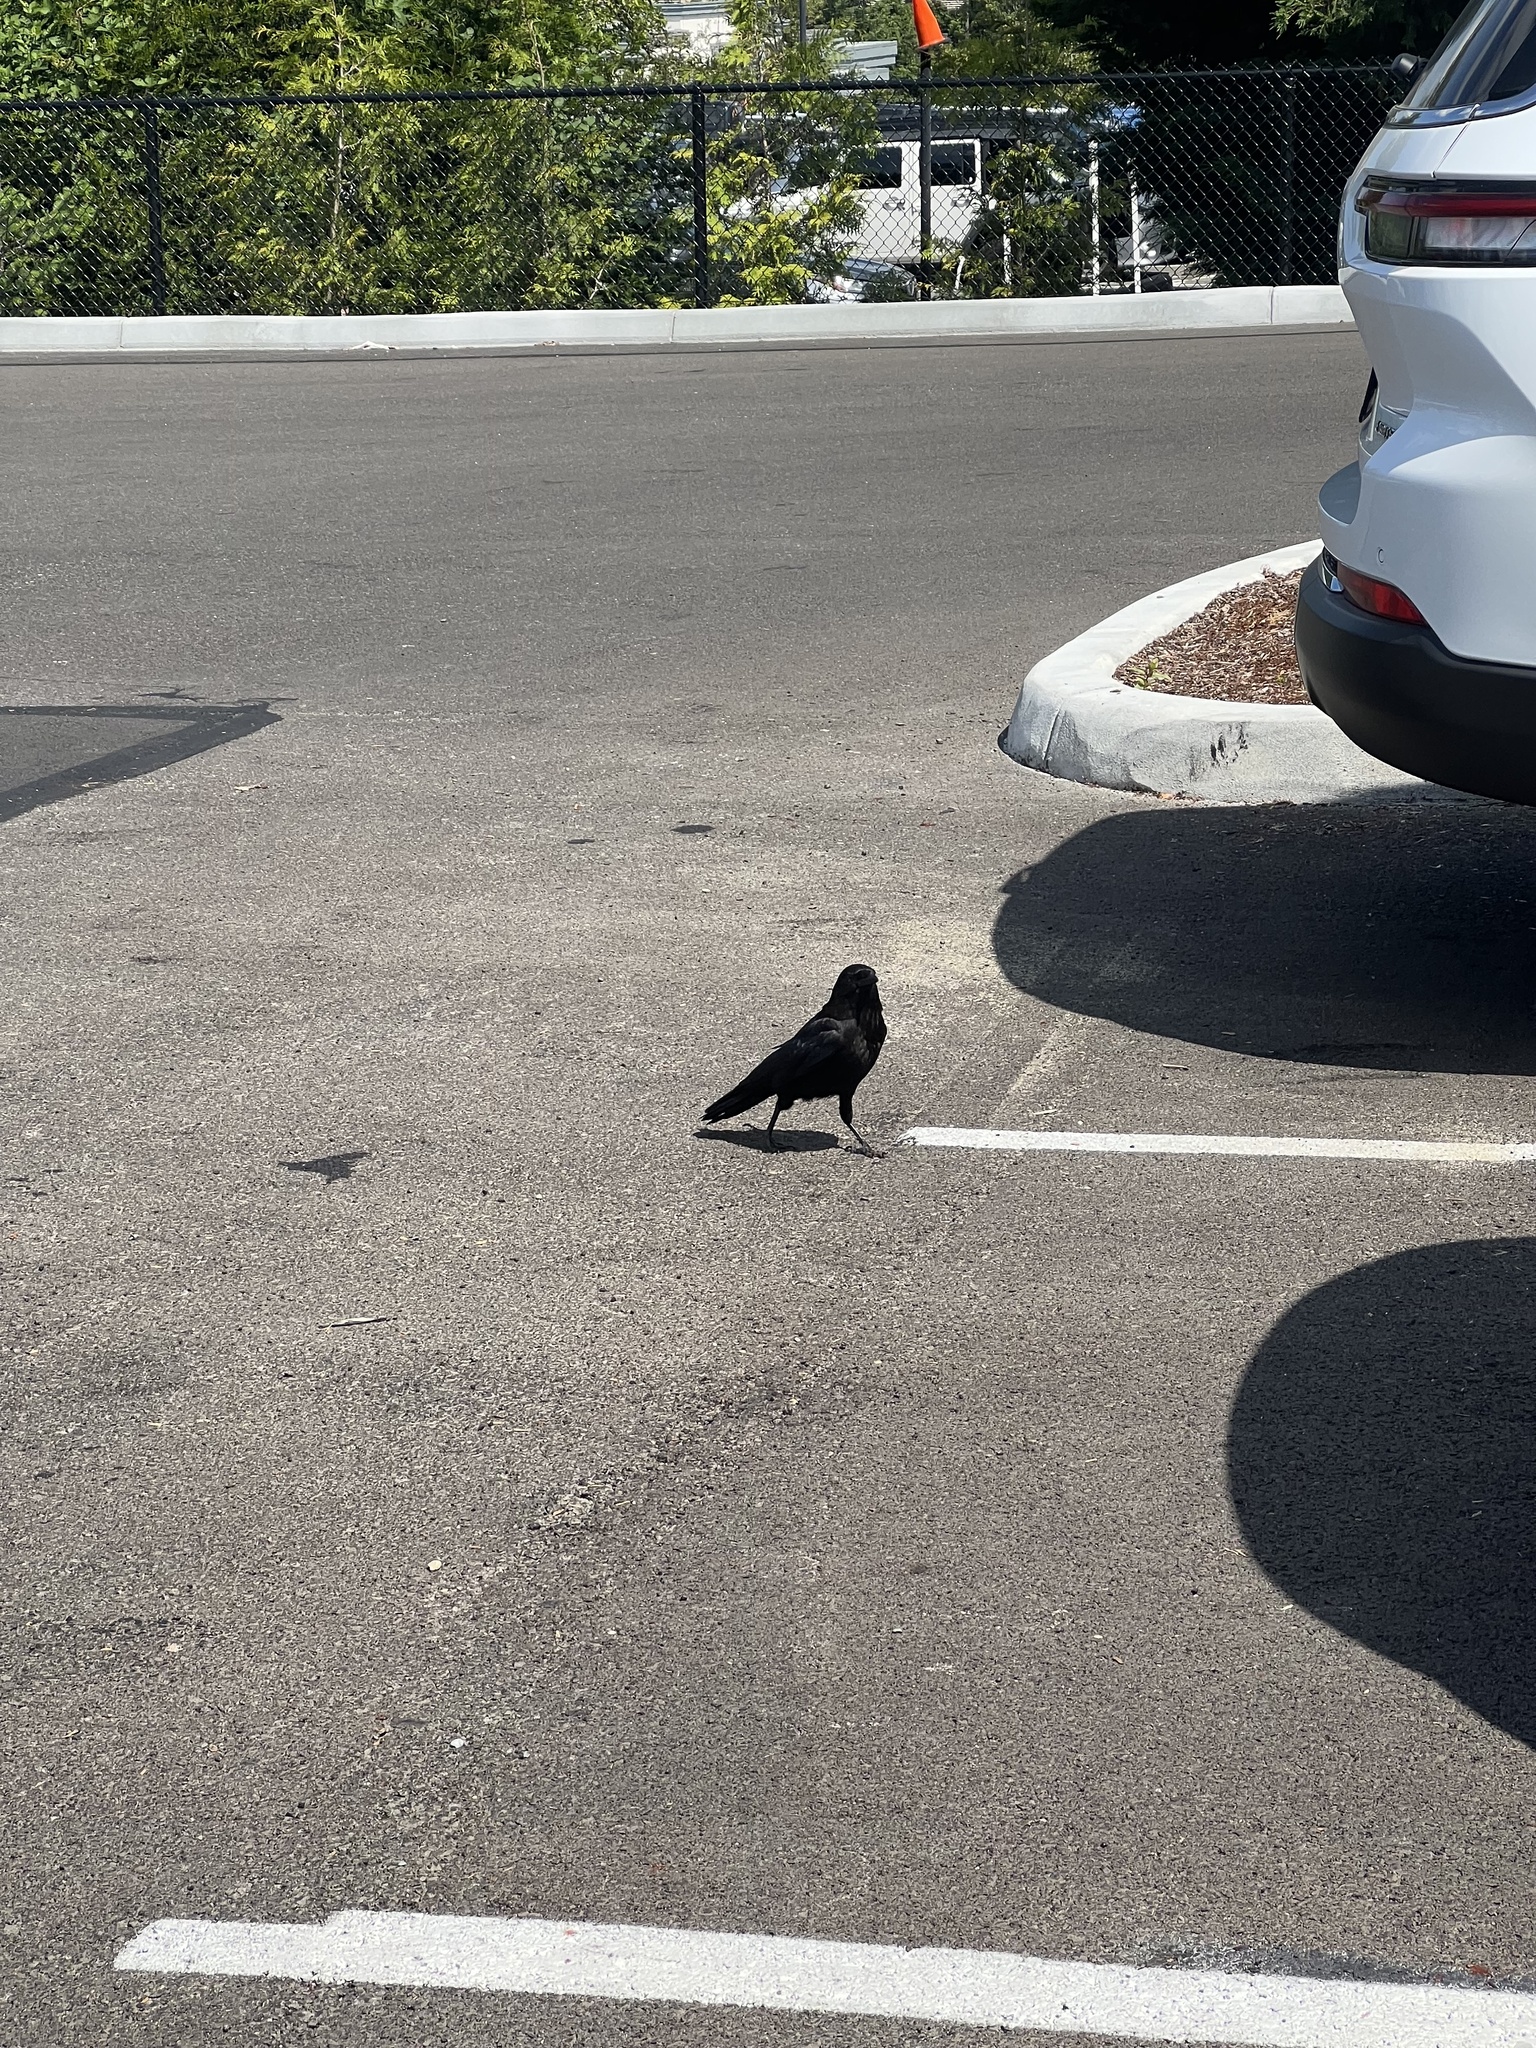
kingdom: Animalia
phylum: Chordata
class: Aves
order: Passeriformes
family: Corvidae
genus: Corvus
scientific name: Corvus brachyrhynchos
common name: American crow
